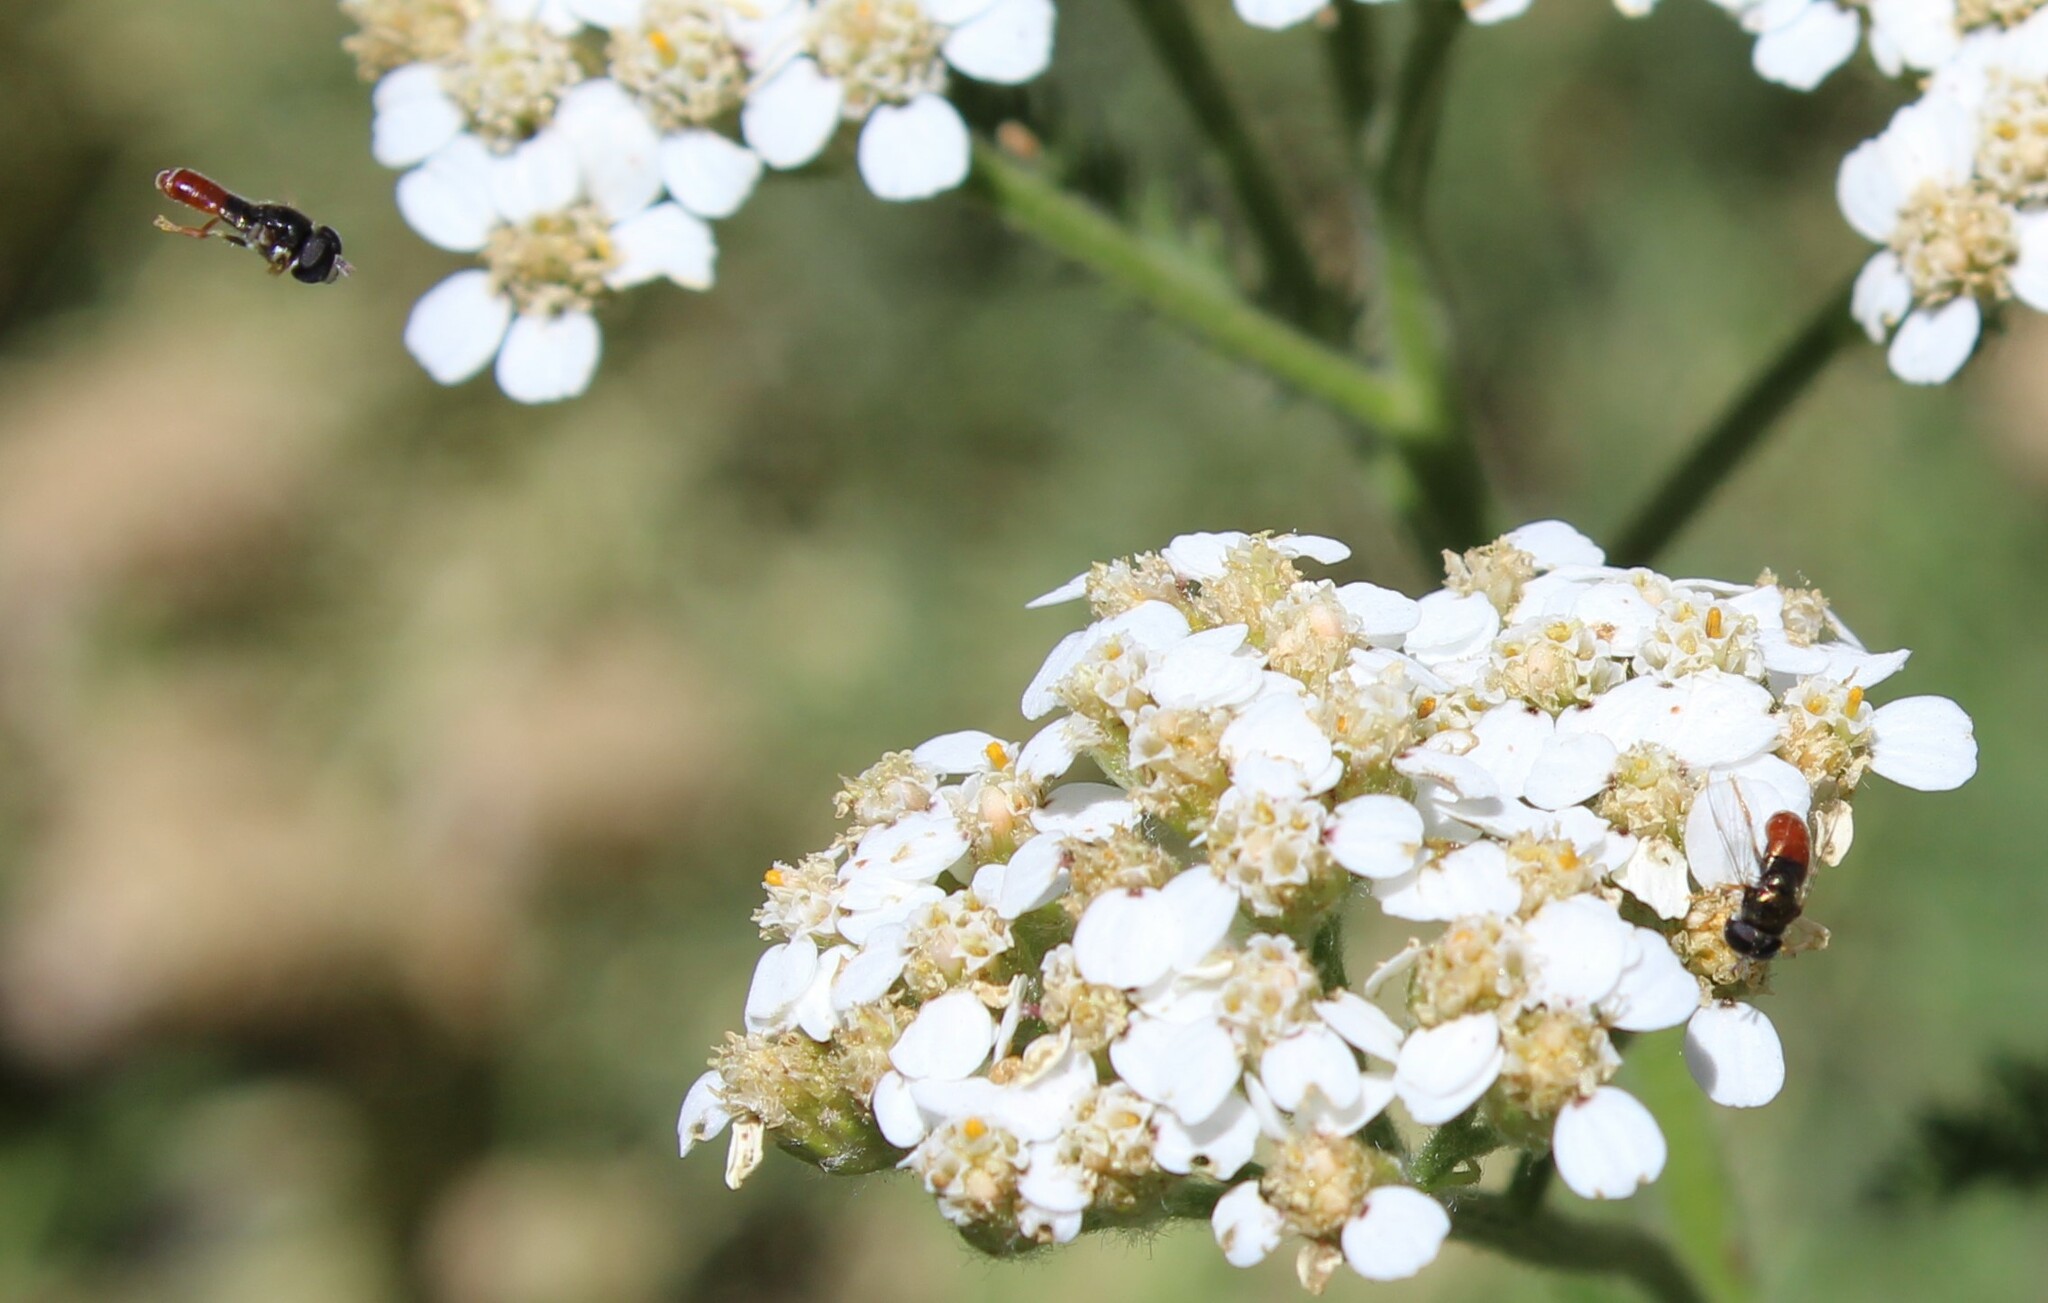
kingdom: Animalia
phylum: Arthropoda
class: Insecta
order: Diptera
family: Syrphidae
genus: Paragus
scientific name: Paragus haemorrhous
